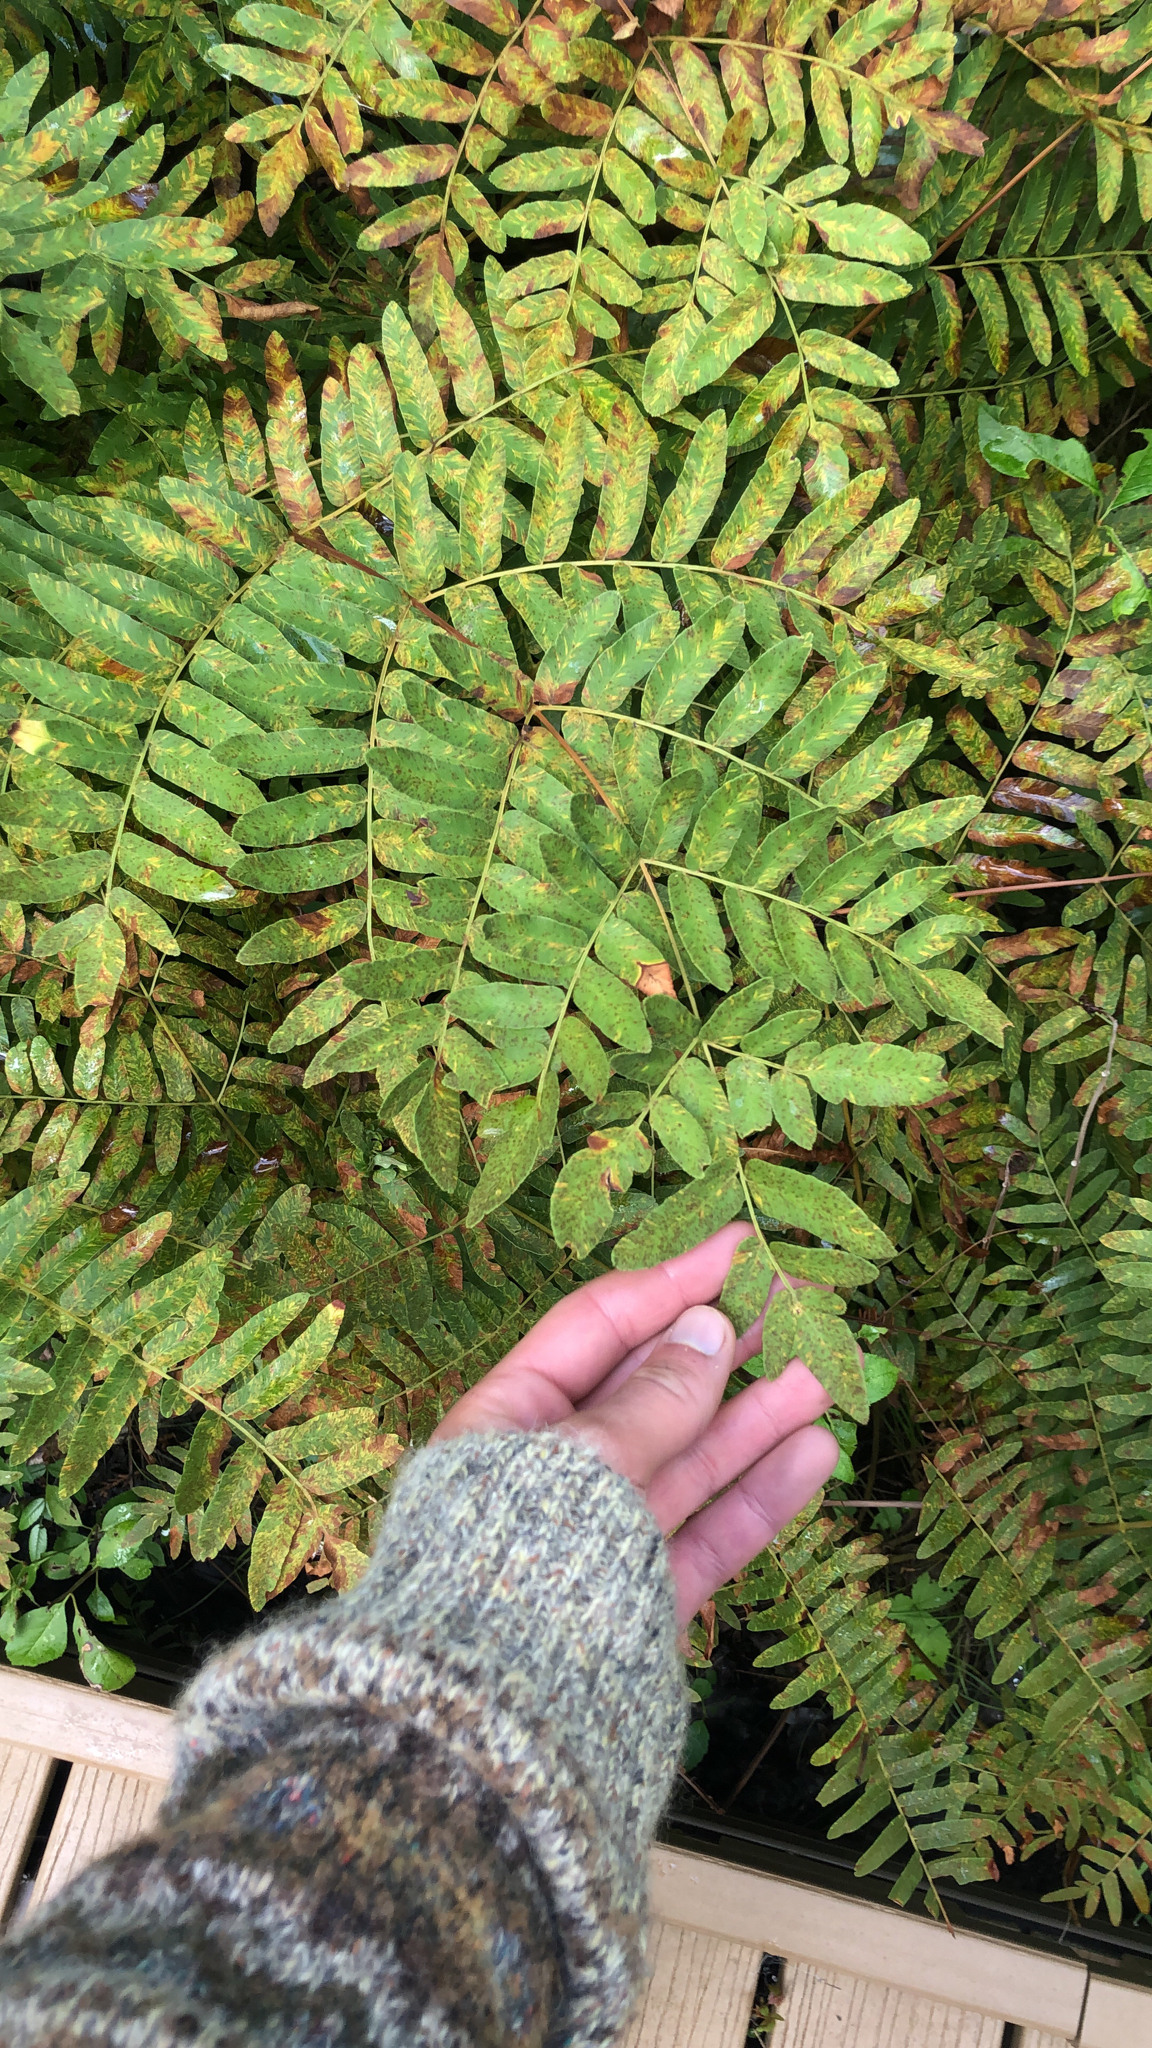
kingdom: Plantae
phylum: Tracheophyta
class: Polypodiopsida
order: Osmundales
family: Osmundaceae
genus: Osmunda
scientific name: Osmunda spectabilis
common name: American royal fern
